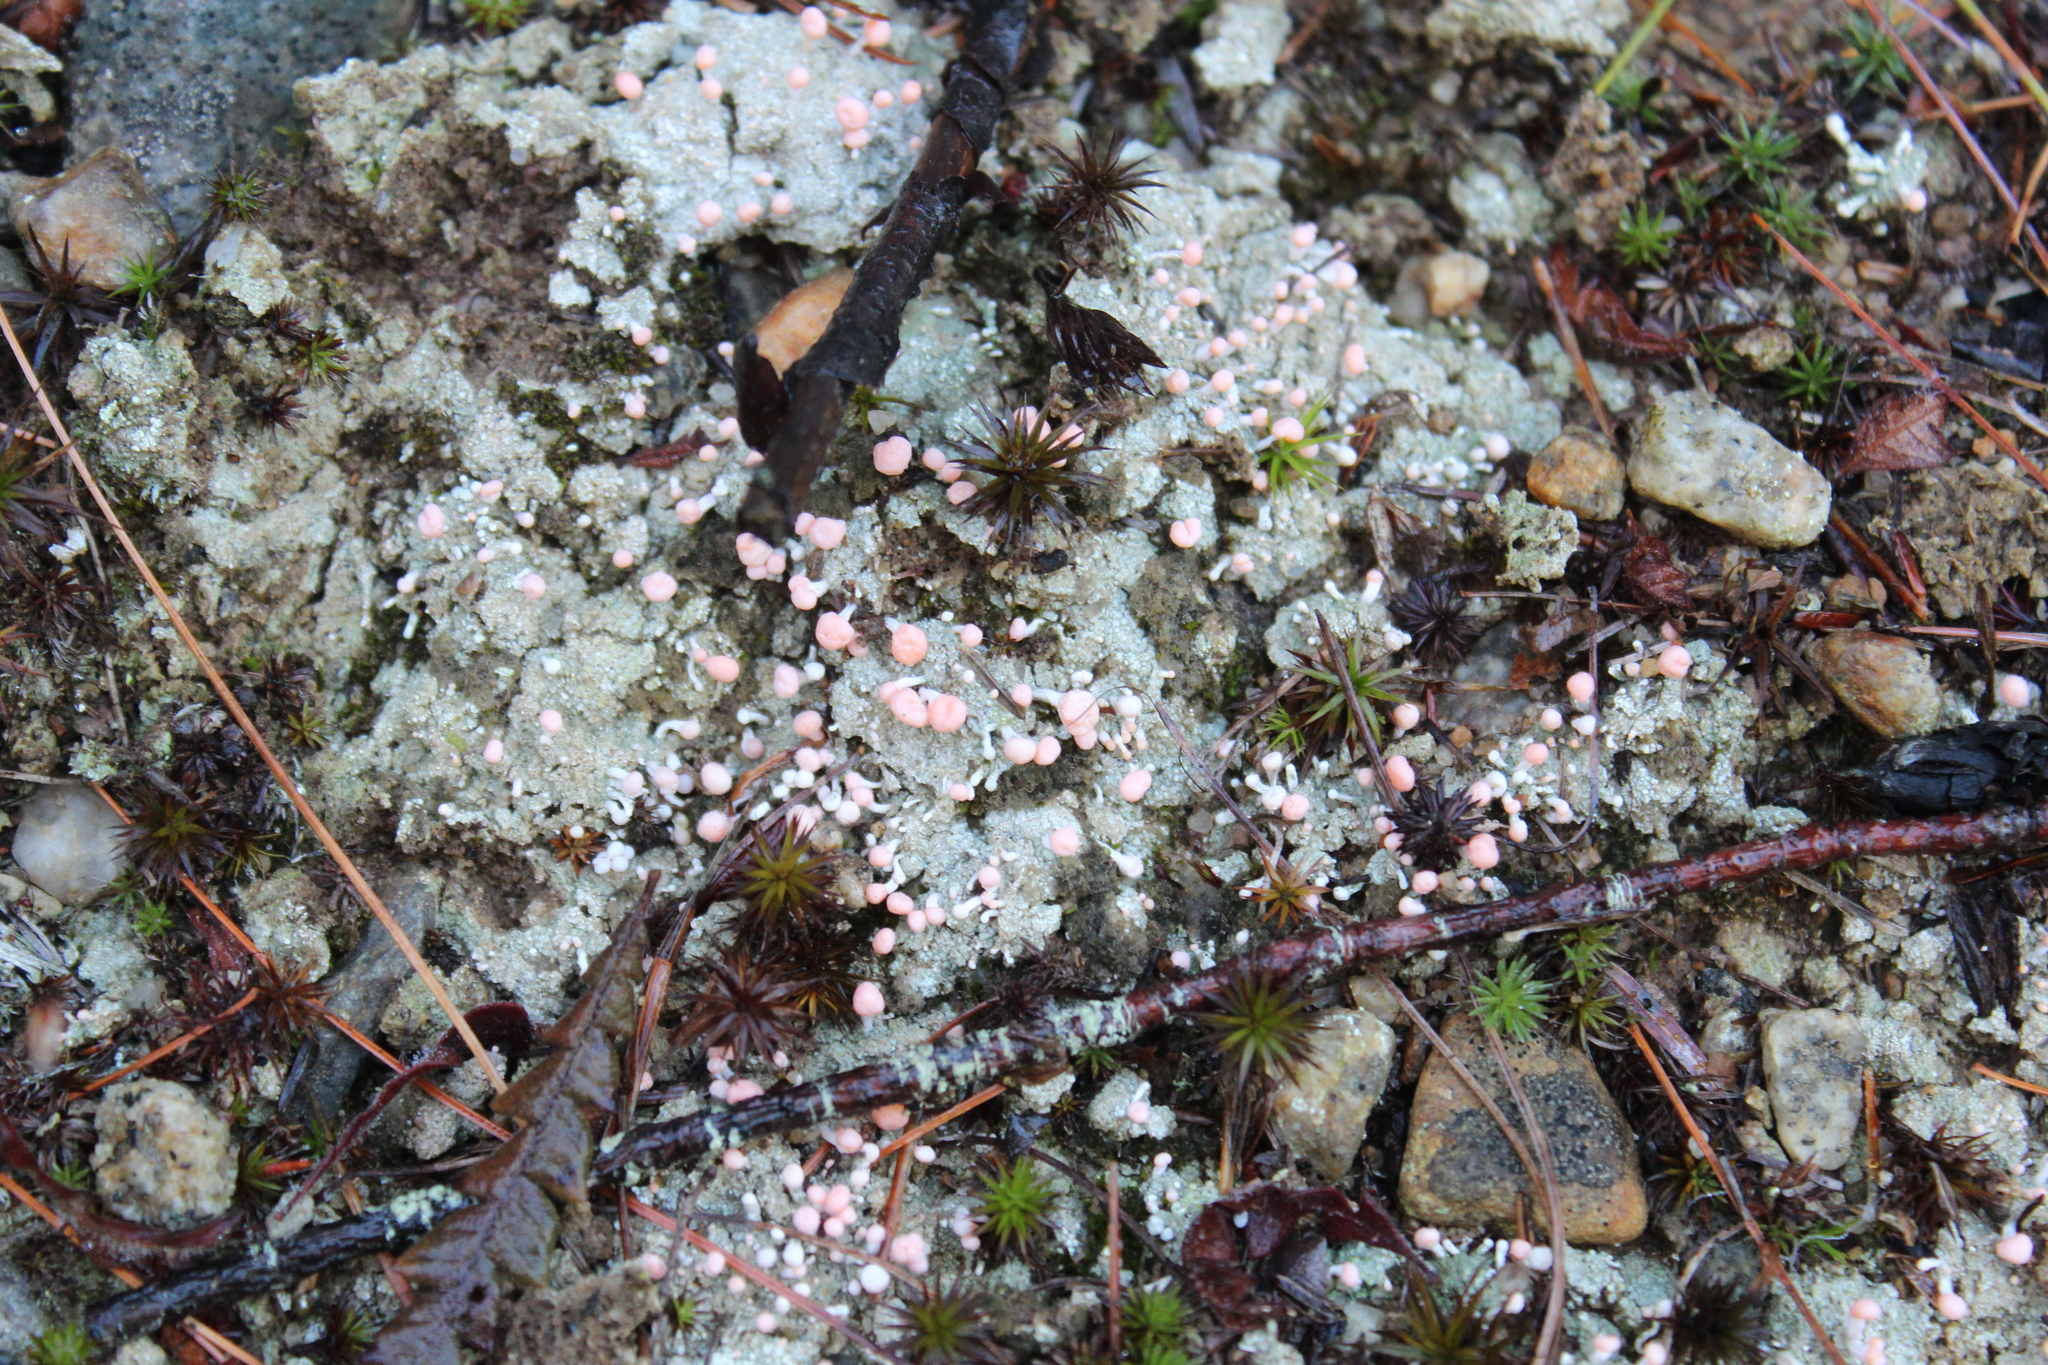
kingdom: Fungi
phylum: Ascomycota
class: Lecanoromycetes
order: Pertusariales
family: Icmadophilaceae
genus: Dibaeis
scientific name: Dibaeis baeomyces
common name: Pink earth lichen
